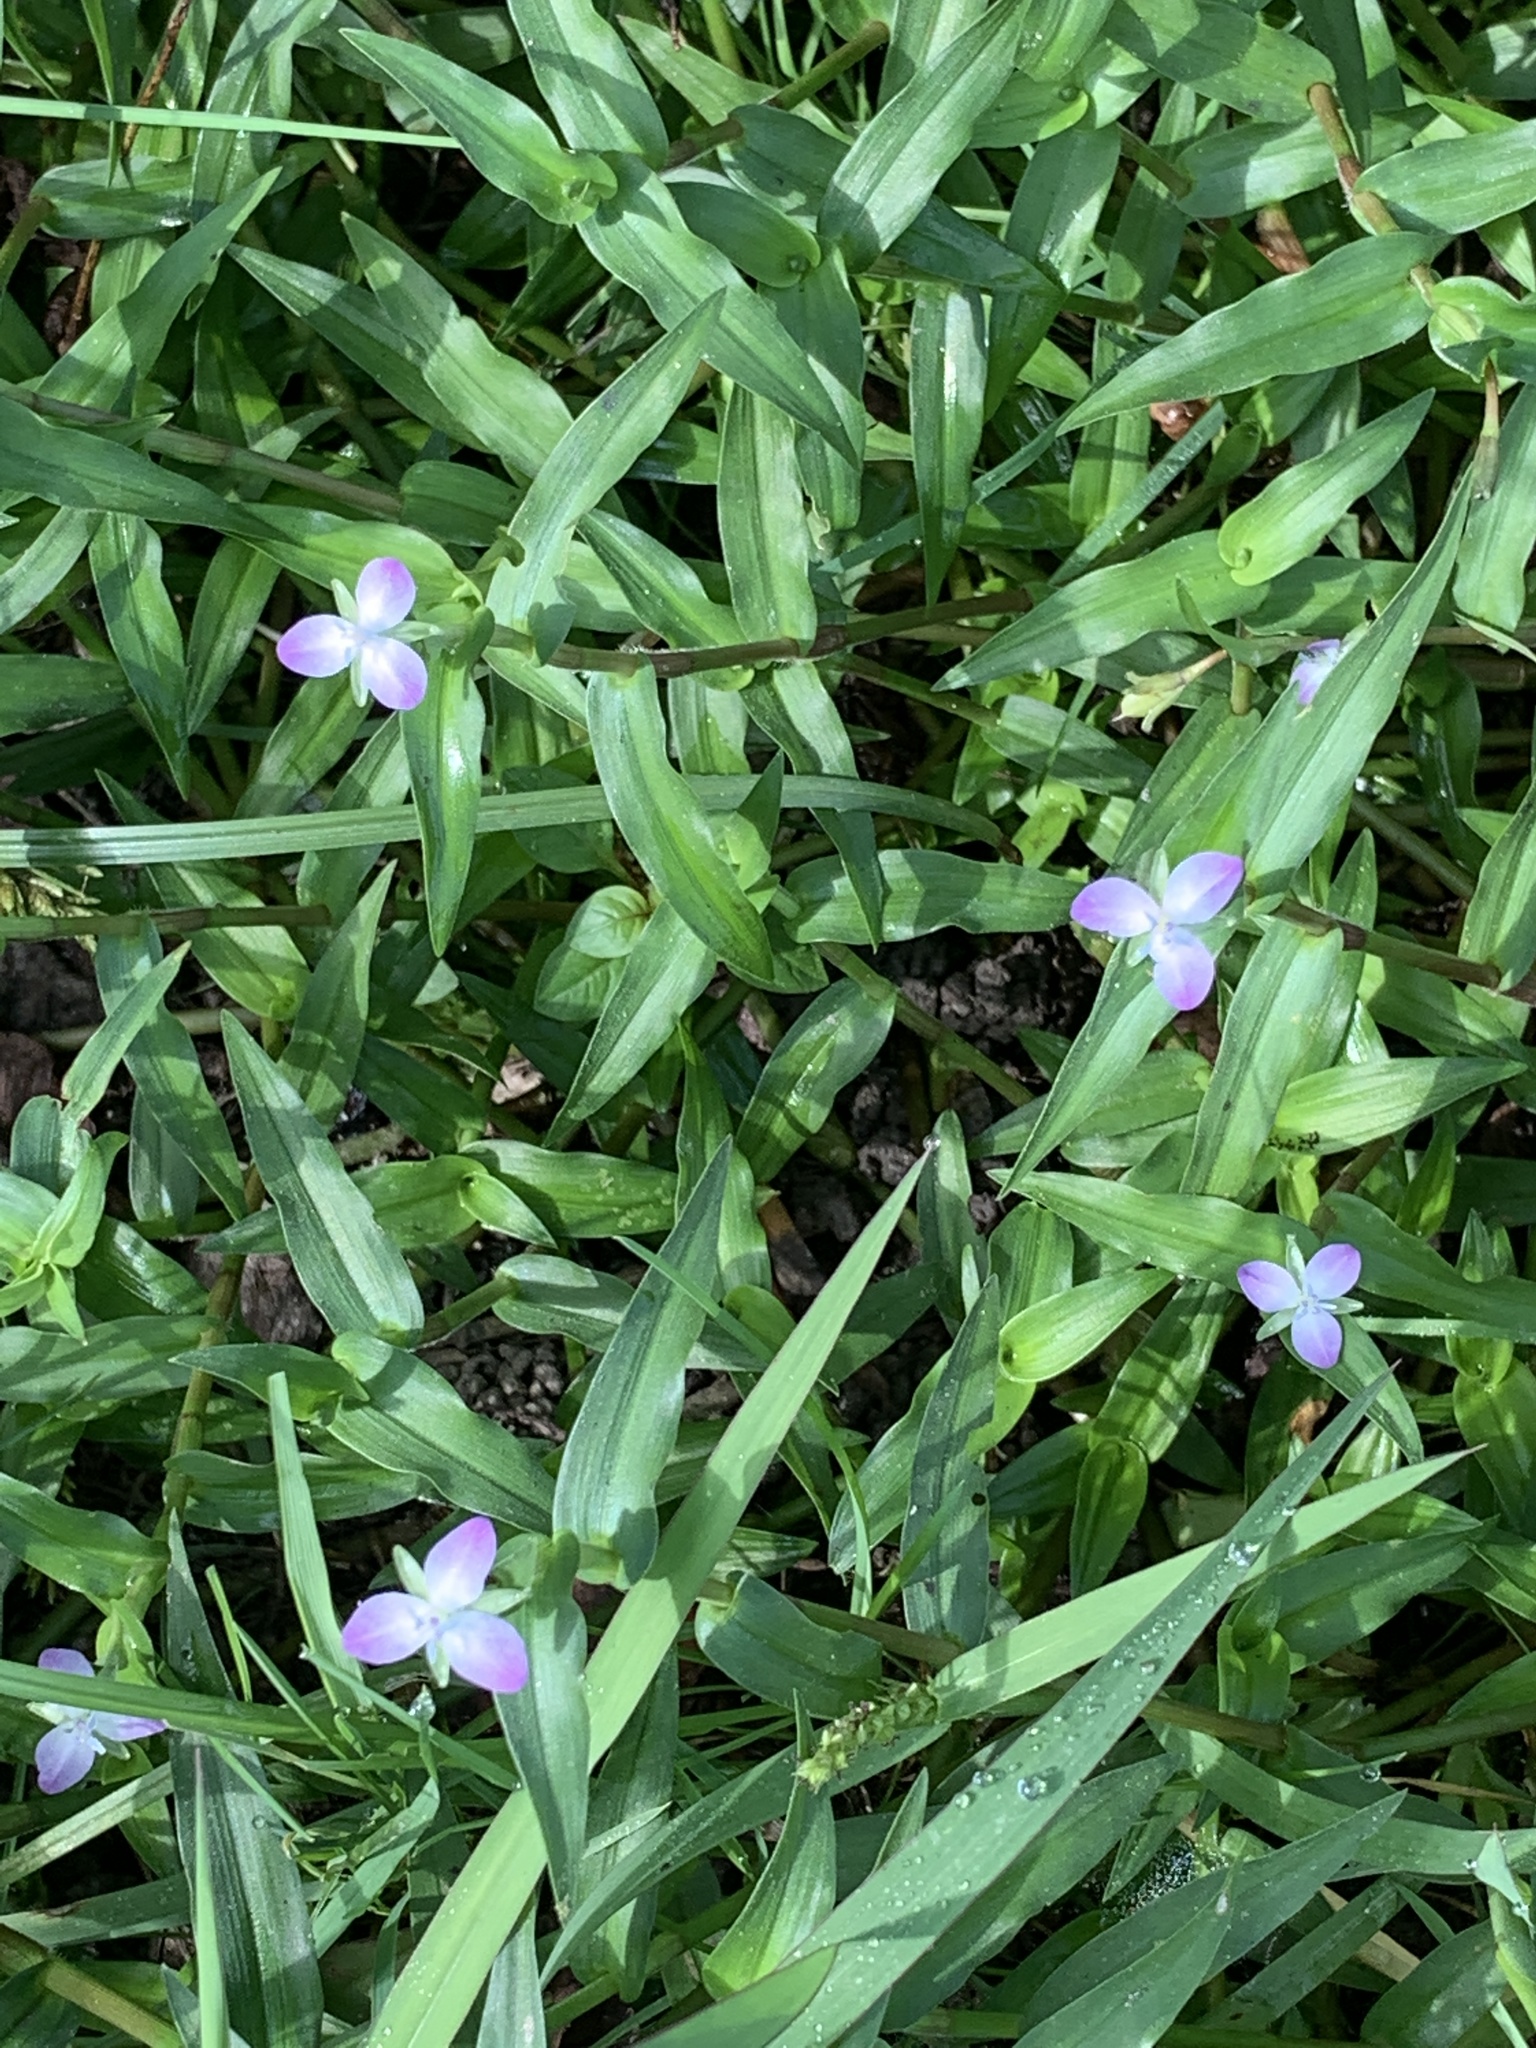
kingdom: Plantae
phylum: Tracheophyta
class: Liliopsida
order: Commelinales
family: Commelinaceae
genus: Murdannia
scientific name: Murdannia keisak
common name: Wartremoving herb
